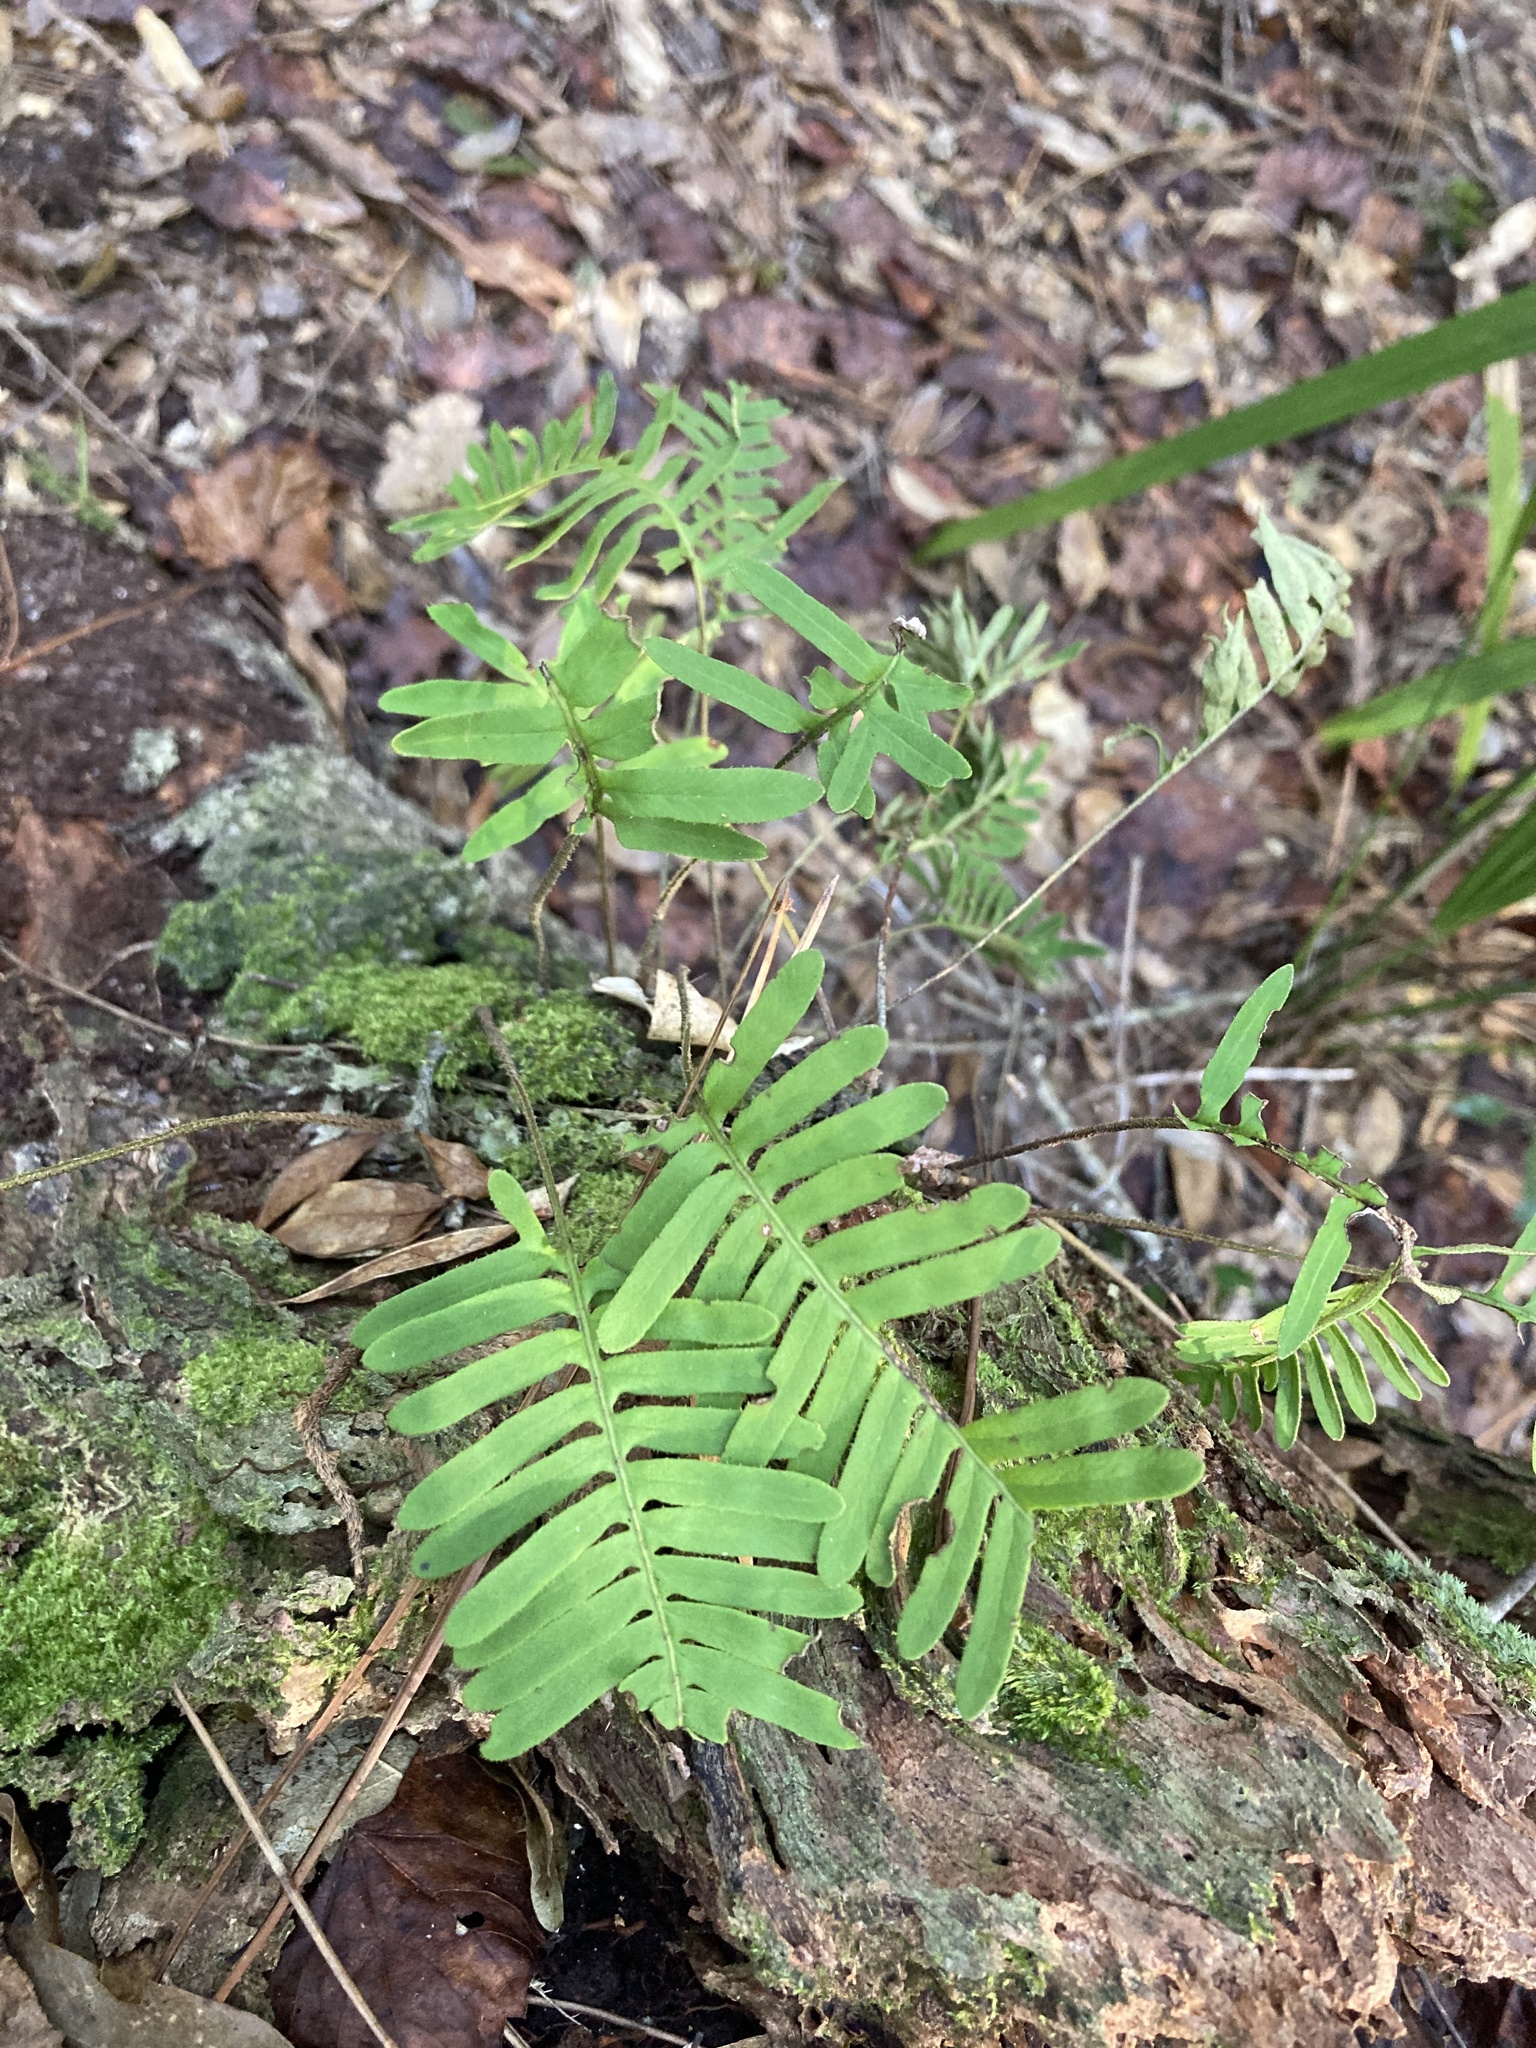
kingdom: Plantae
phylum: Tracheophyta
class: Polypodiopsida
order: Polypodiales
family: Polypodiaceae
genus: Pleopeltis
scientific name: Pleopeltis michauxiana
